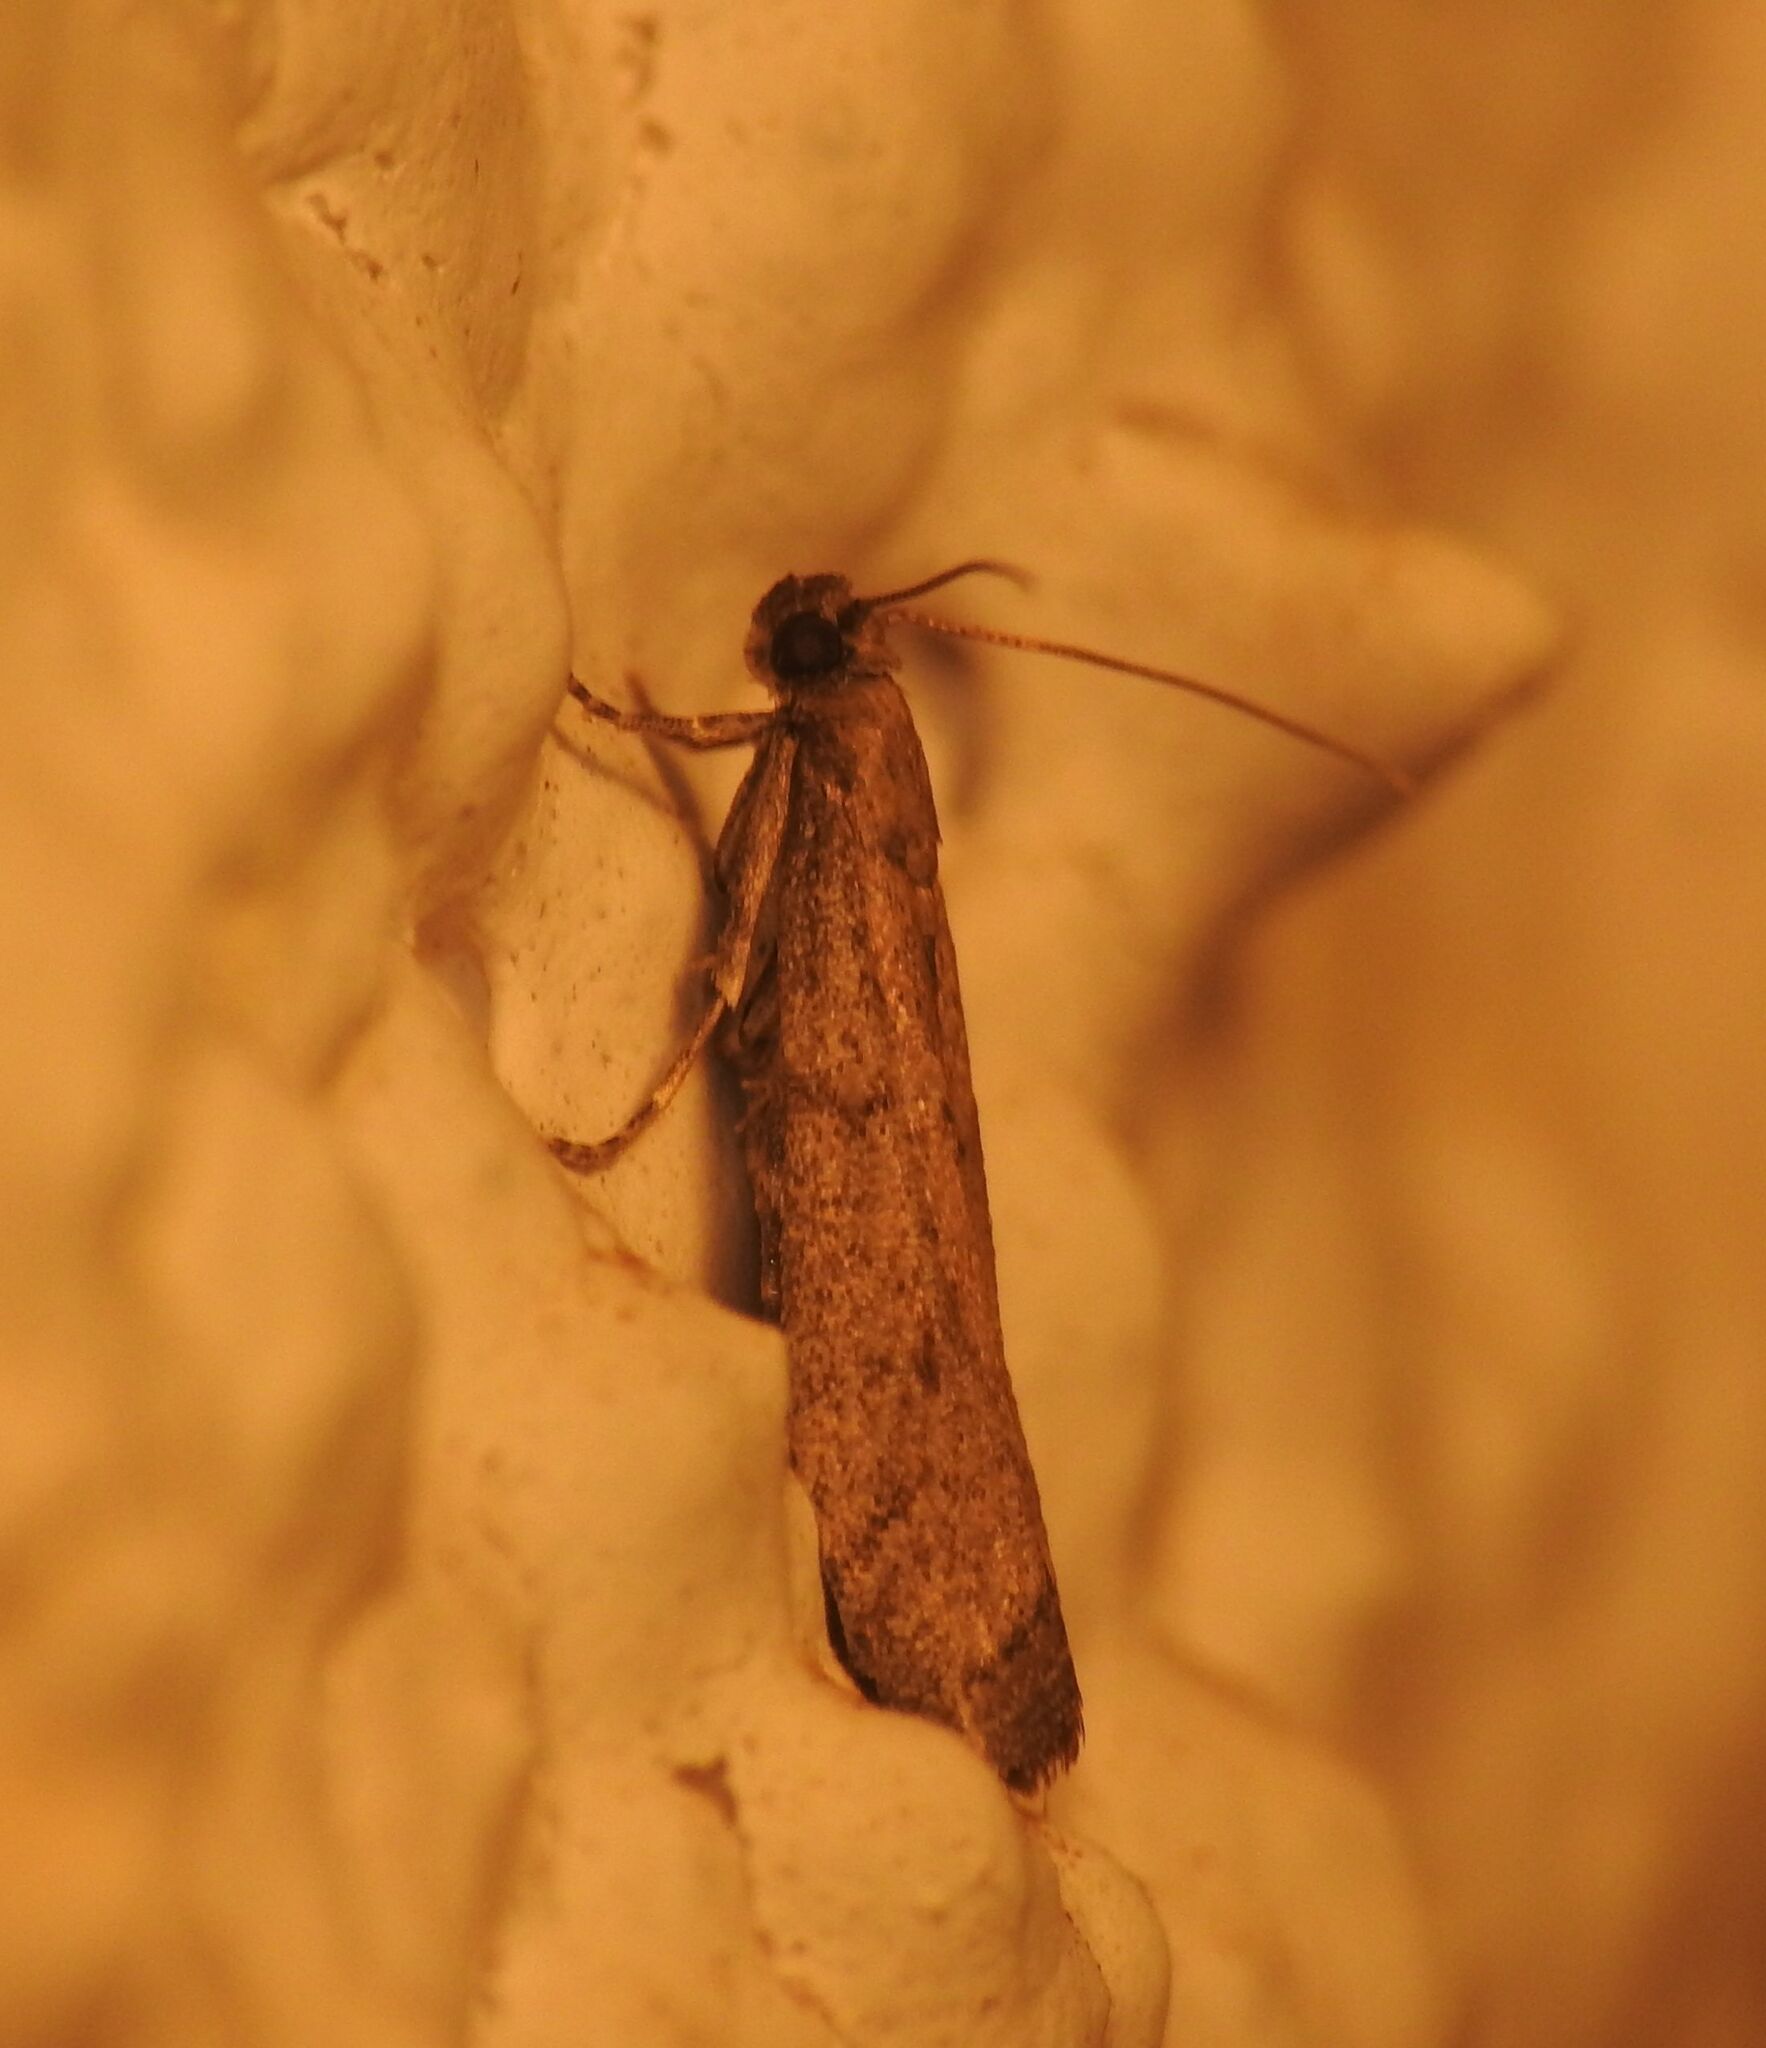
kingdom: Animalia
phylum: Arthropoda
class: Insecta
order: Lepidoptera
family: Pyralidae
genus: Euzopherodes
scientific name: Euzopherodes lutisignella
